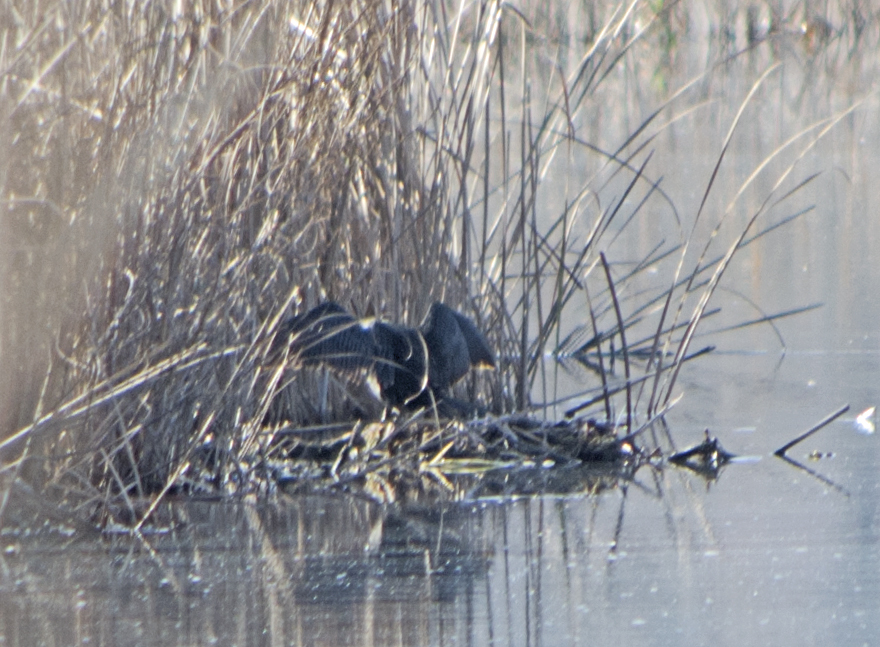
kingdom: Animalia
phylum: Chordata
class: Aves
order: Suliformes
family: Phalacrocoracidae
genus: Phalacrocorax
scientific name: Phalacrocorax carbo
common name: Great cormorant
